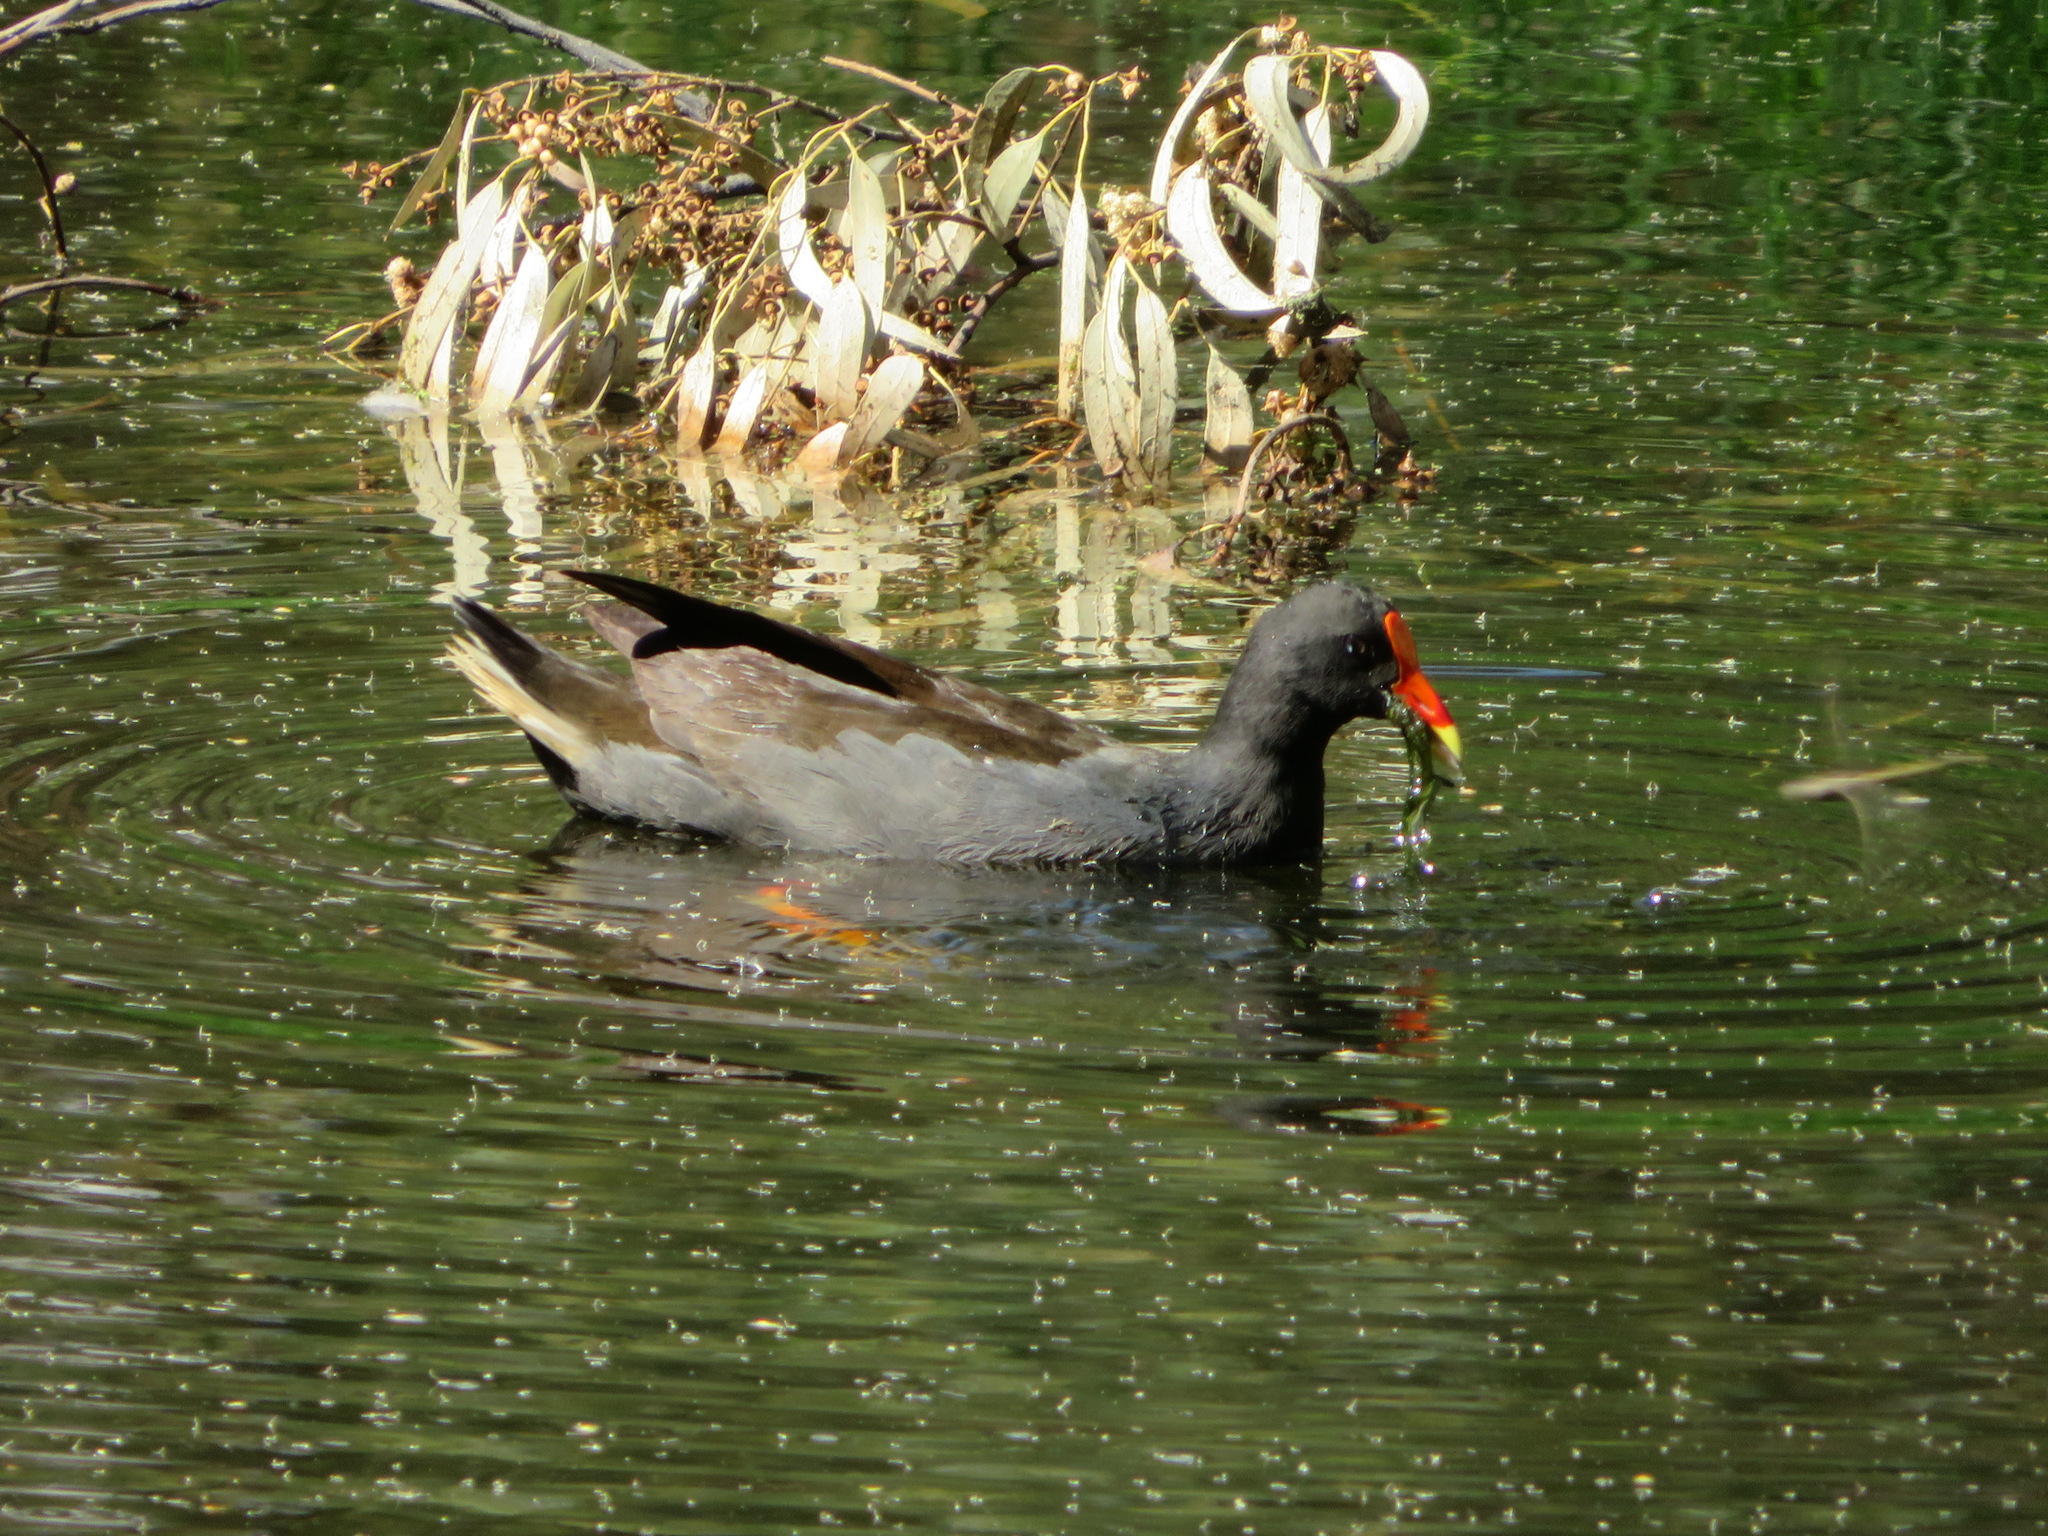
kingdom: Animalia
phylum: Chordata
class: Aves
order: Gruiformes
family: Rallidae
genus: Gallinula
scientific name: Gallinula tenebrosa
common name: Dusky moorhen
